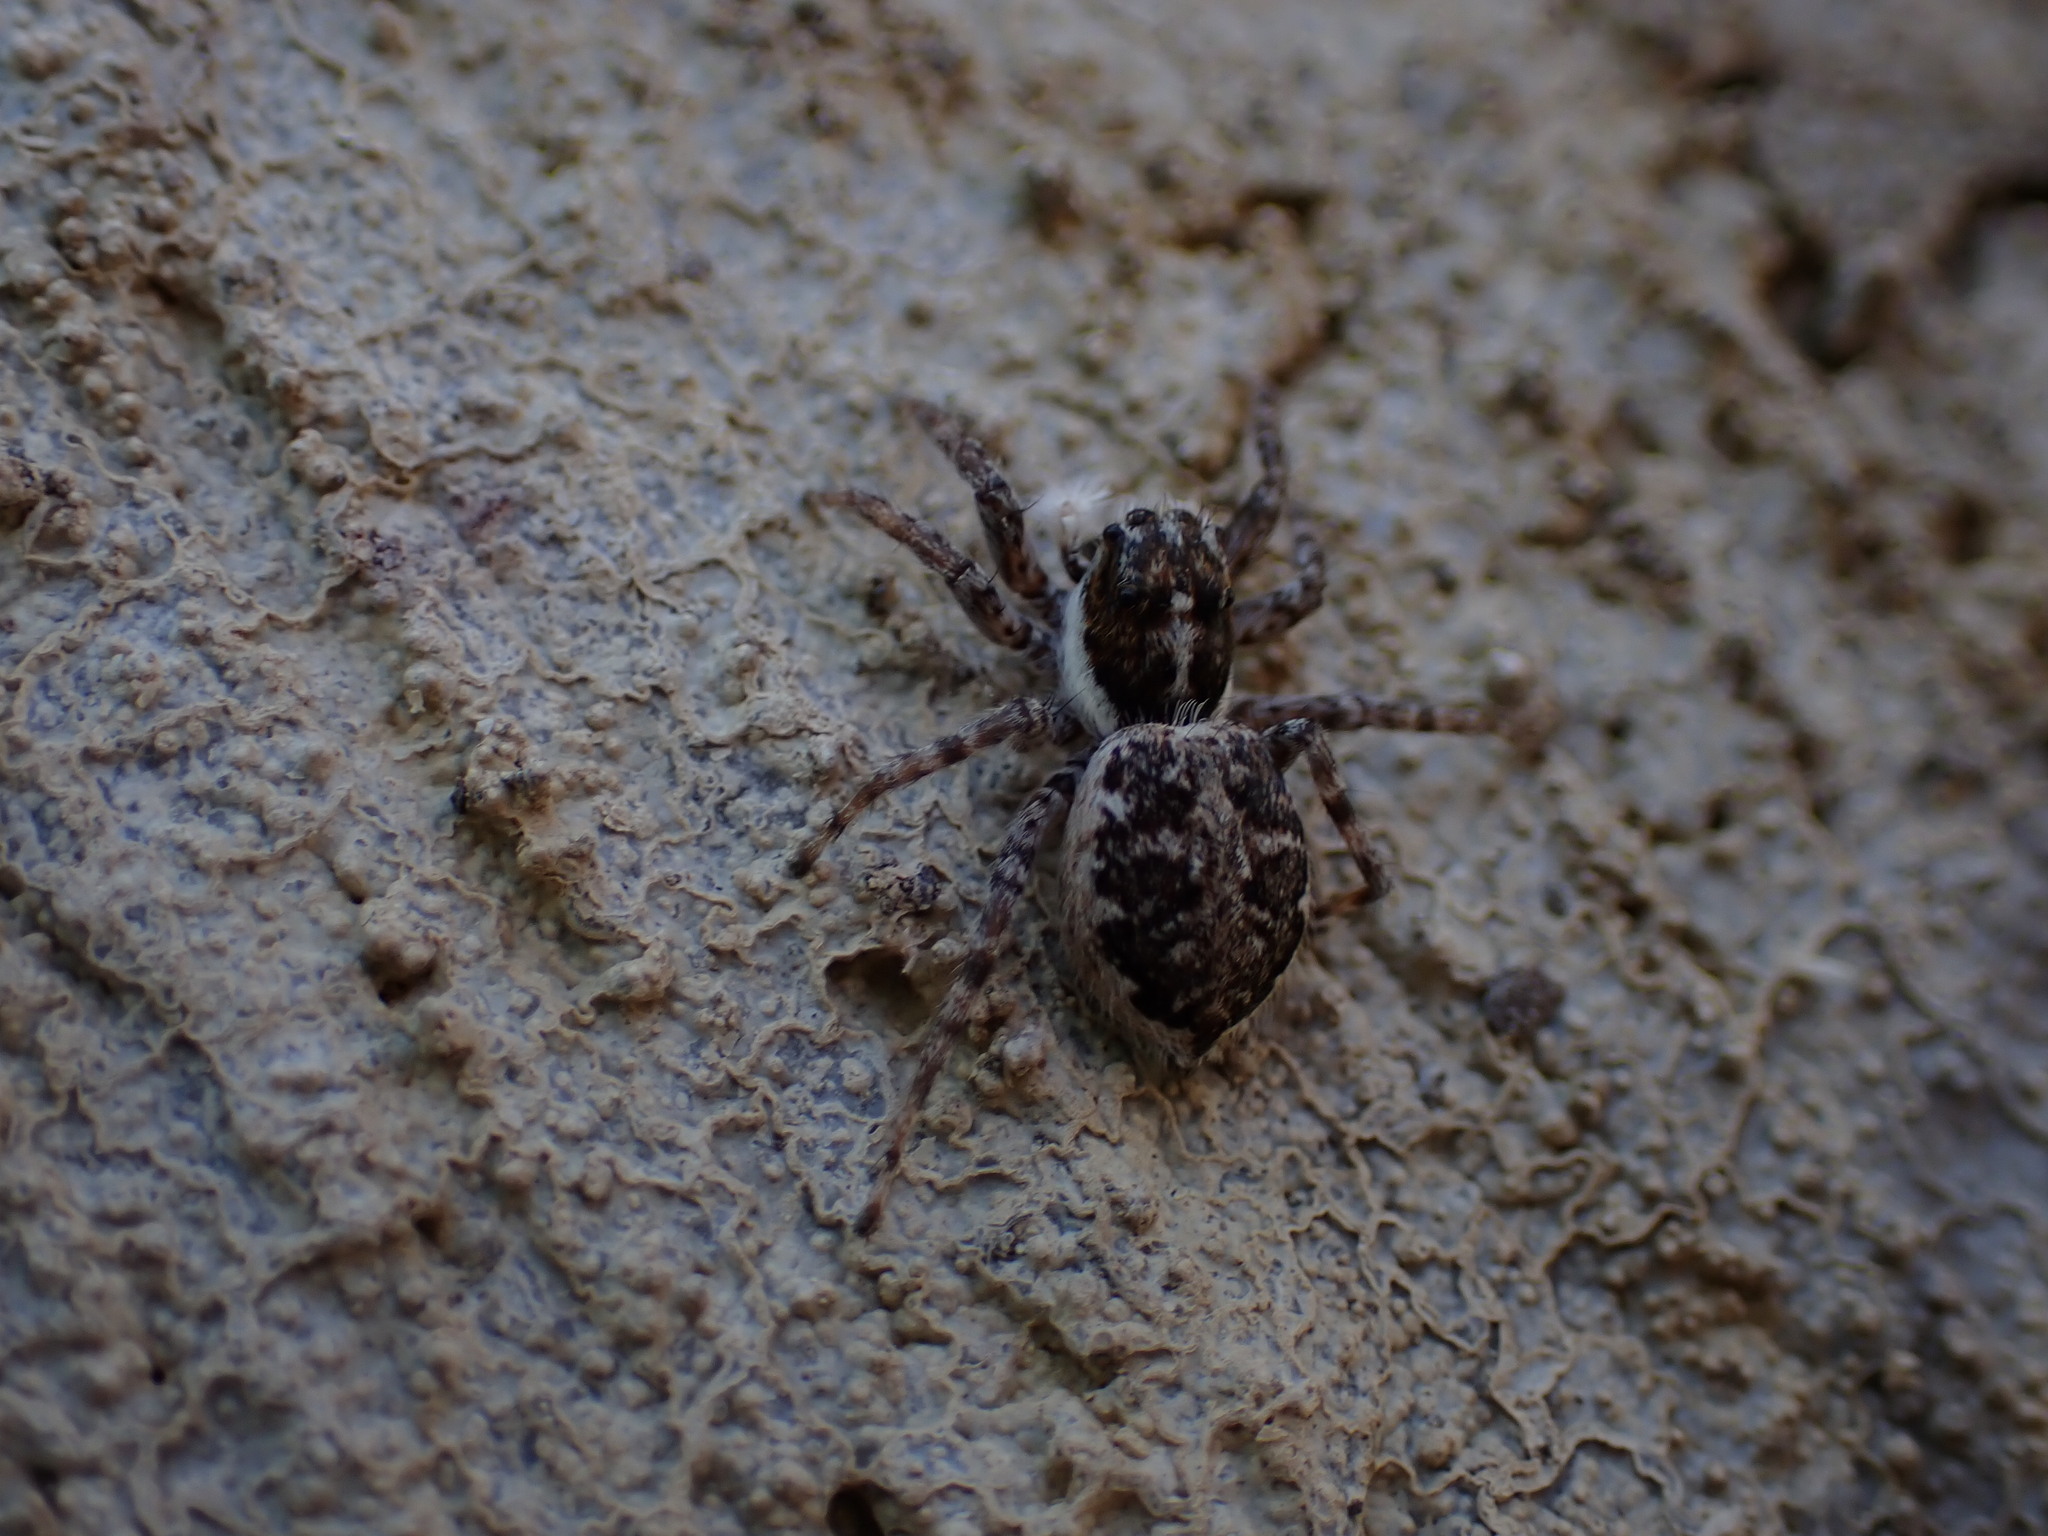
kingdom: Animalia
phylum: Arthropoda
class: Arachnida
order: Araneae
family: Salticidae
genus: Menemerus
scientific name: Menemerus semilimbatus
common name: Jumping spider
